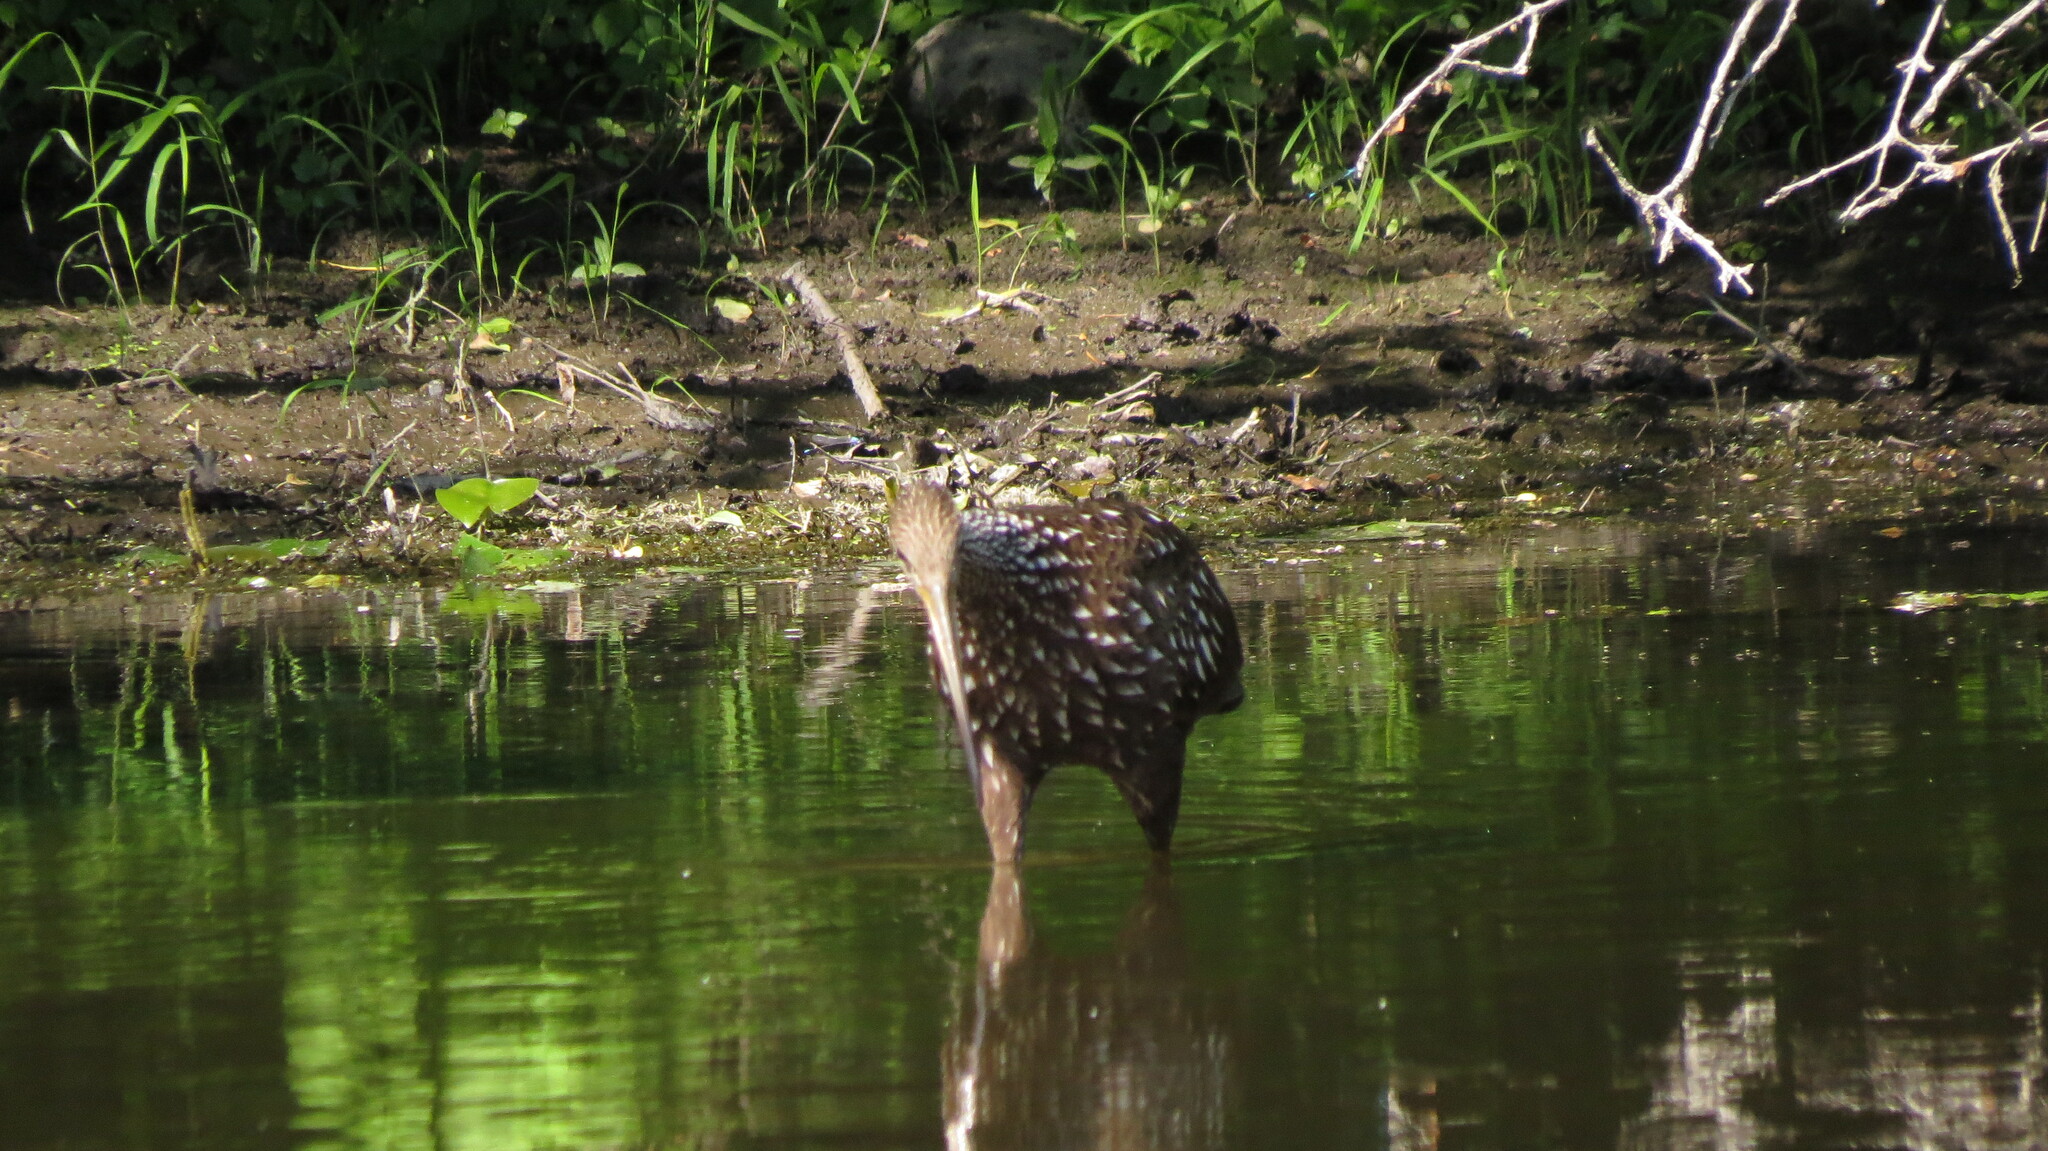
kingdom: Animalia
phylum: Chordata
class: Aves
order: Gruiformes
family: Aramidae
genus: Aramus
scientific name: Aramus guarauna
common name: Limpkin
